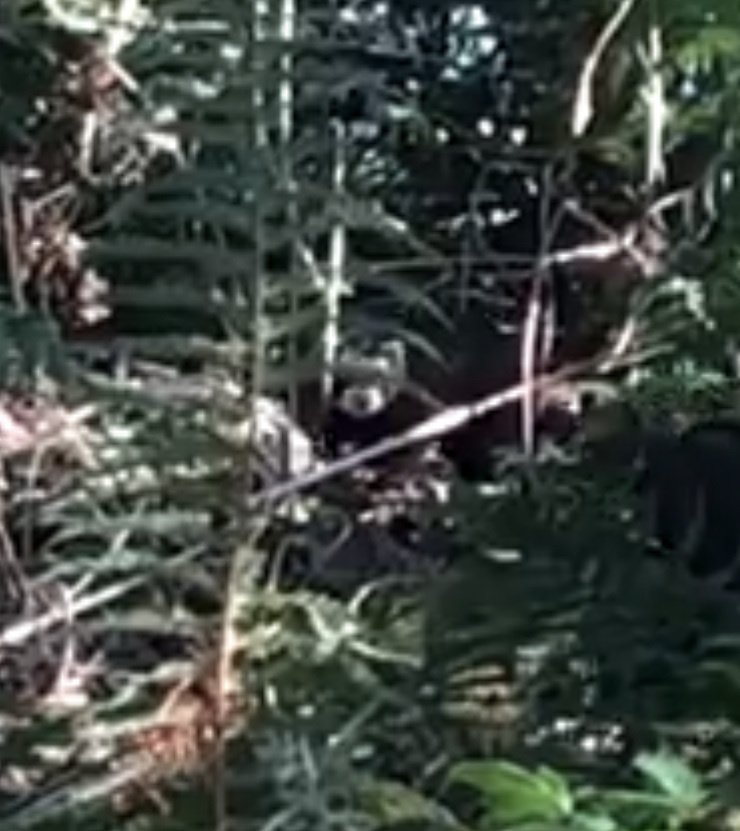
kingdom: Animalia
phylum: Chordata
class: Mammalia
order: Carnivora
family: Mustelidae
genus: Mustela
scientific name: Mustela putorius
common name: European polecat
